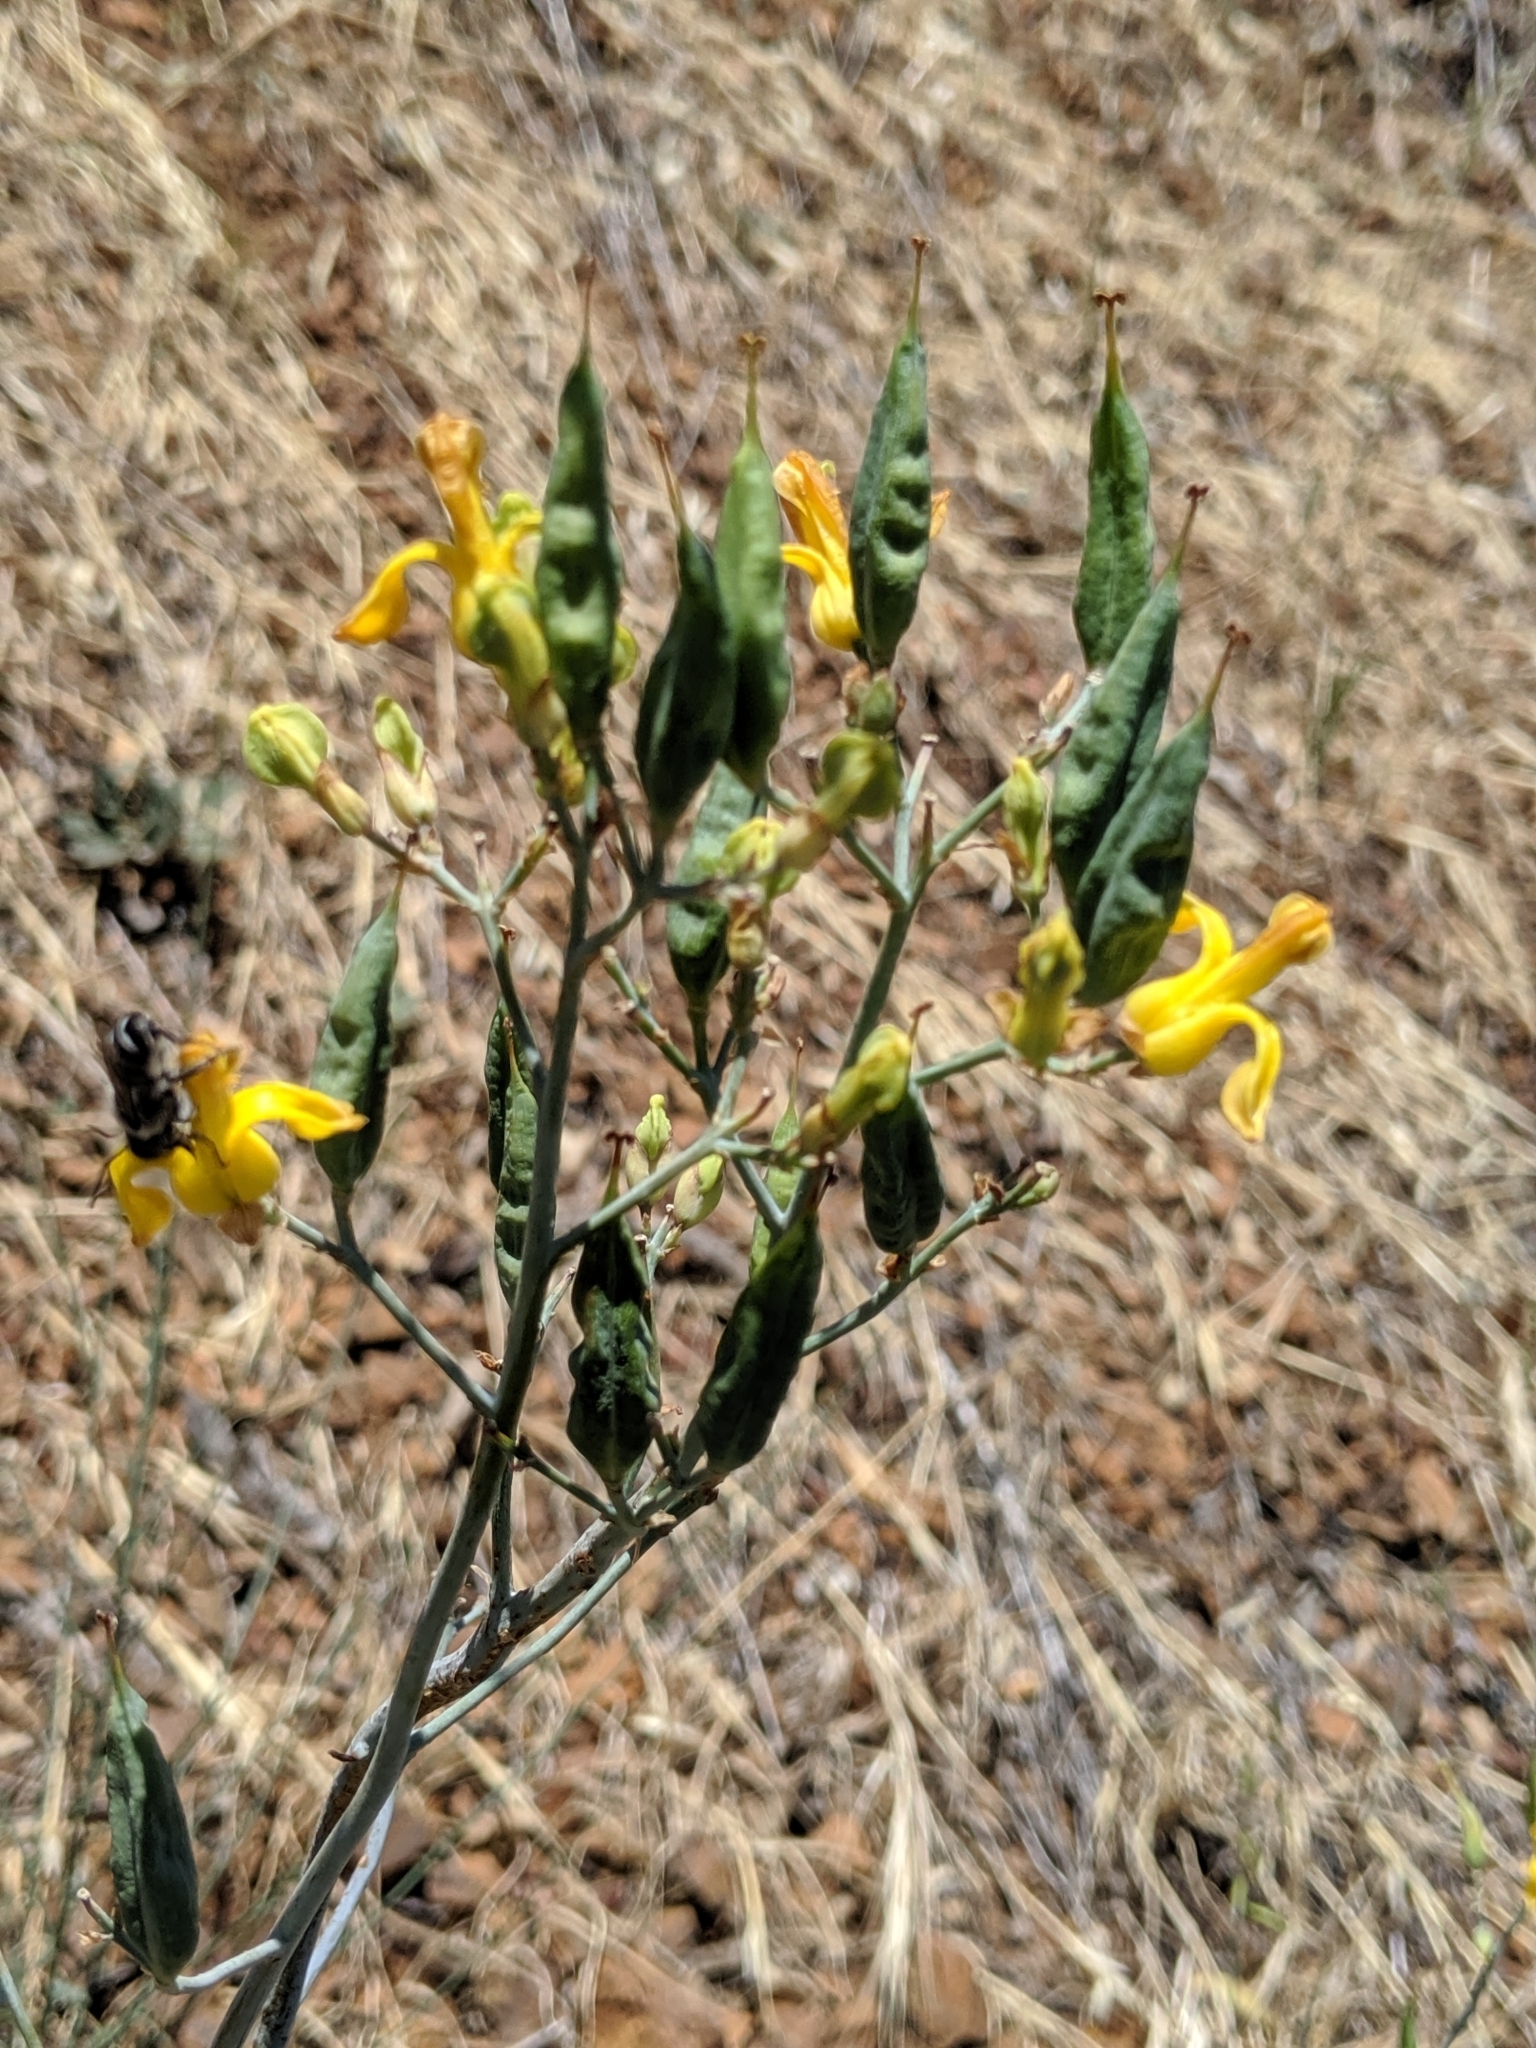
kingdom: Plantae
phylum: Tracheophyta
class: Magnoliopsida
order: Ranunculales
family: Papaveraceae
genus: Ehrendorferia
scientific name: Ehrendorferia chrysantha
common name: Golden eardrops
